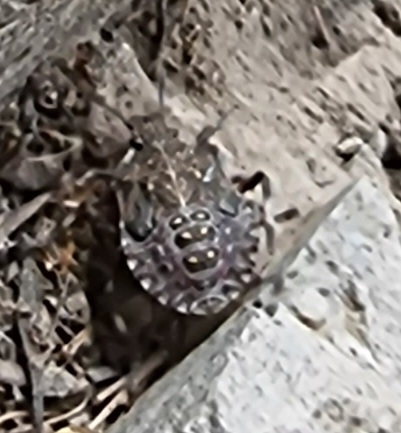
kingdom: Animalia
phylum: Arthropoda
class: Insecta
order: Hemiptera
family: Pentatomidae
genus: Halyomorpha
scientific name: Halyomorpha halys
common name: Brown marmorated stink bug
